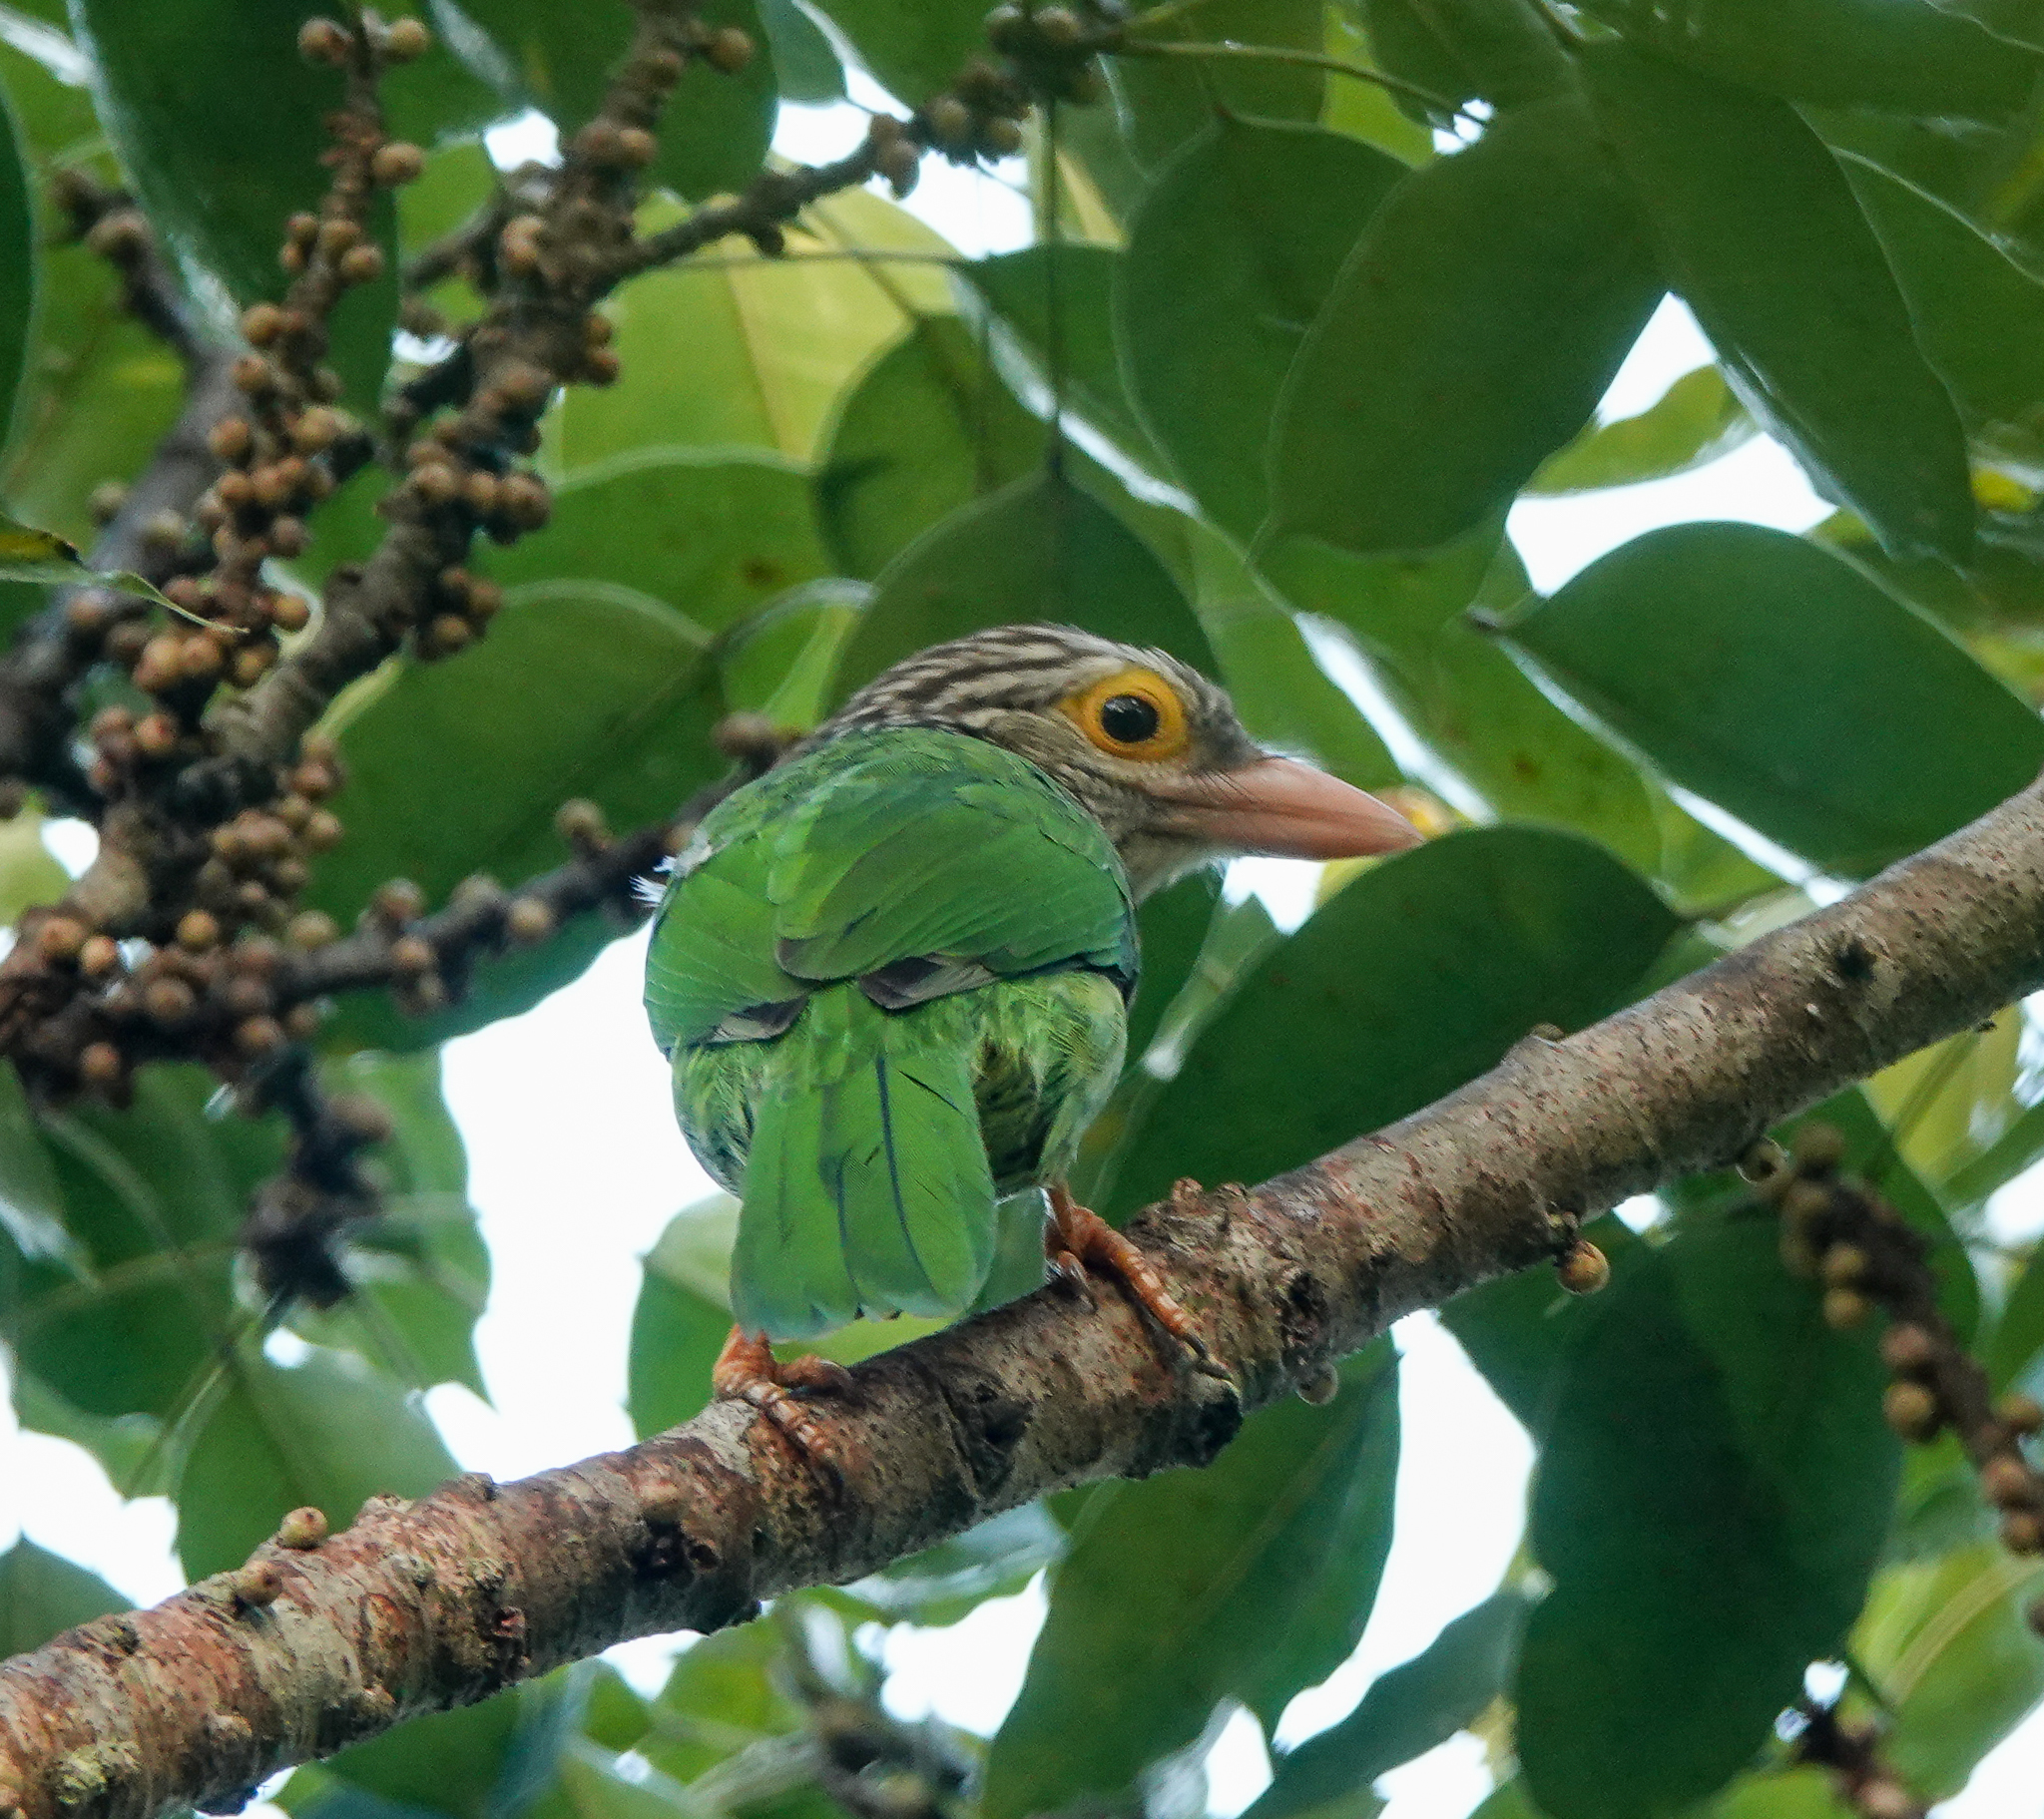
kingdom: Animalia
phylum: Chordata
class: Aves
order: Piciformes
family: Megalaimidae
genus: Psilopogon
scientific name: Psilopogon lineatus
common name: Lineated barbet
